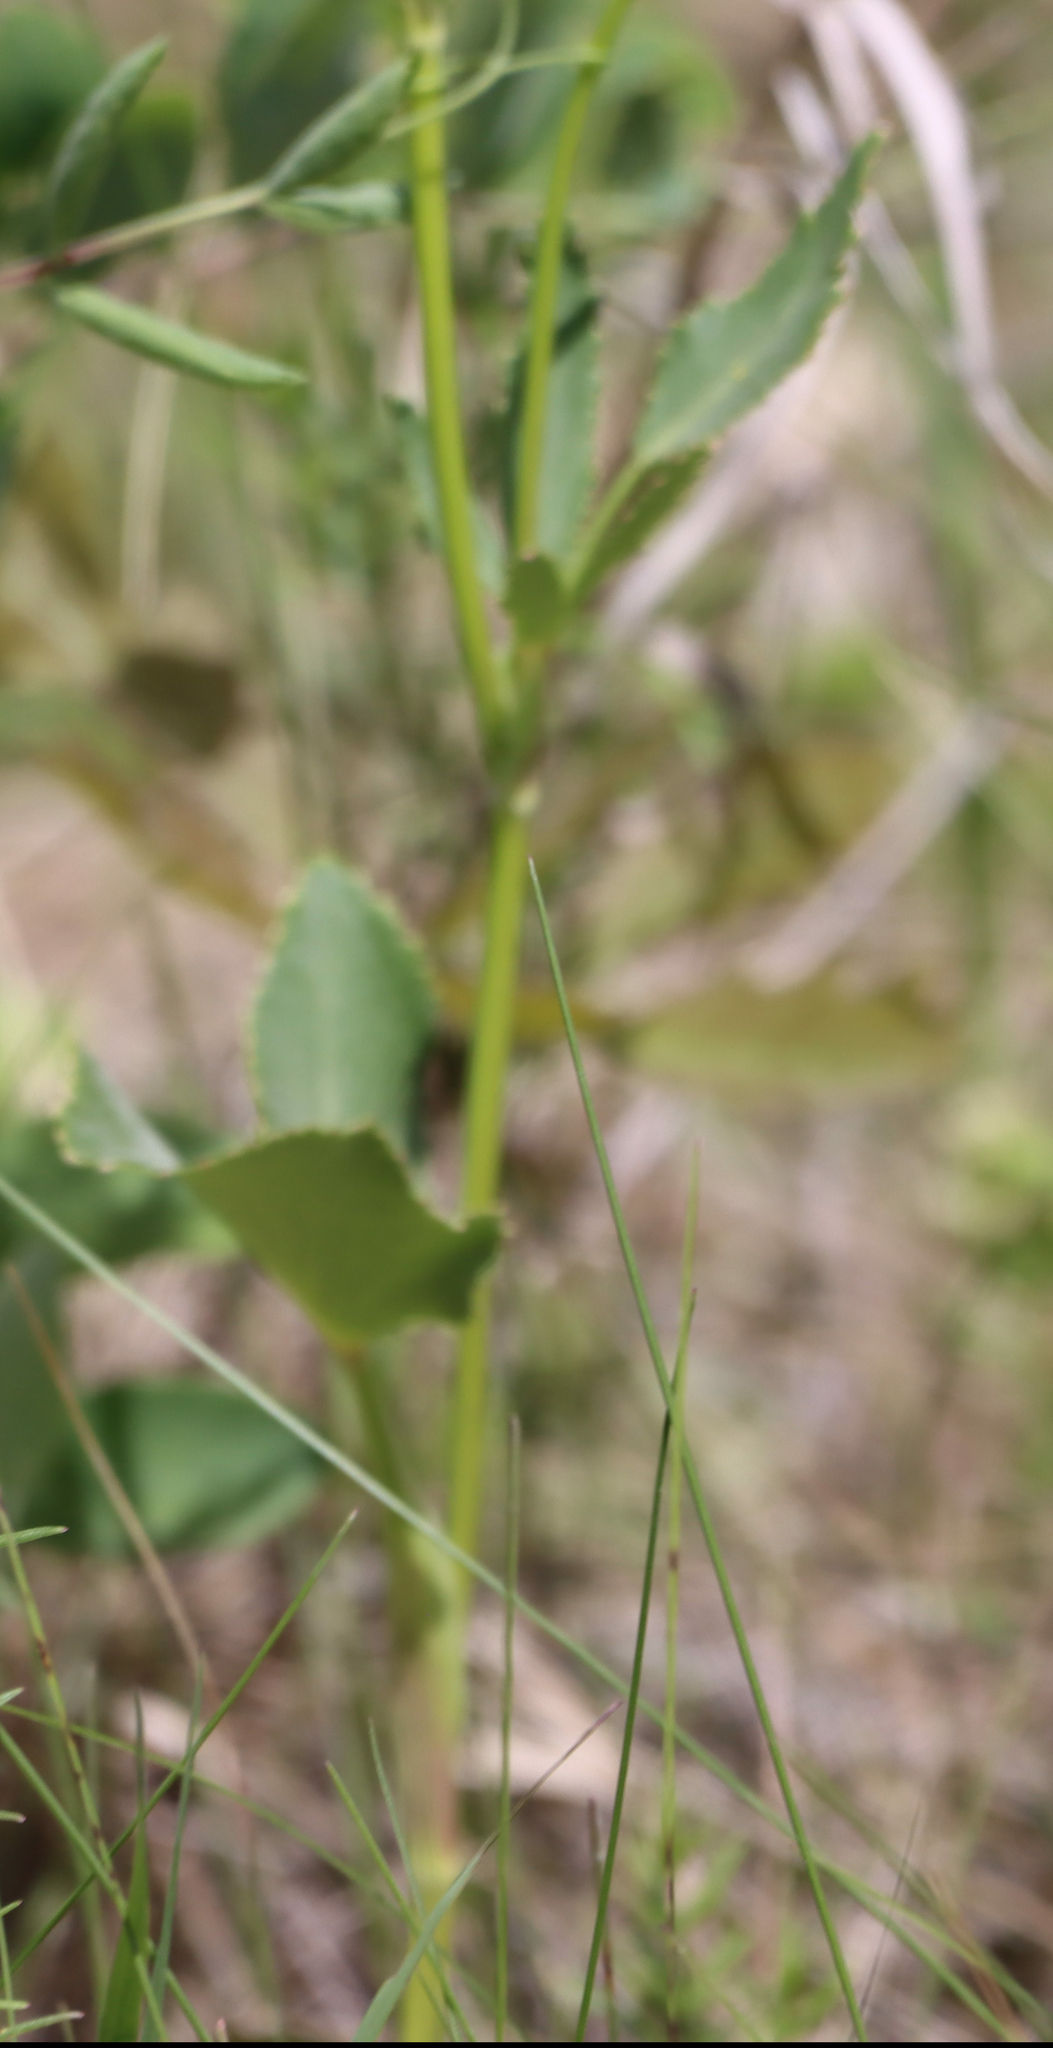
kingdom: Plantae
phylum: Tracheophyta
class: Magnoliopsida
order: Apiales
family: Apiaceae
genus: Zizia
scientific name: Zizia aptera
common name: Heart-leaved alexanders
